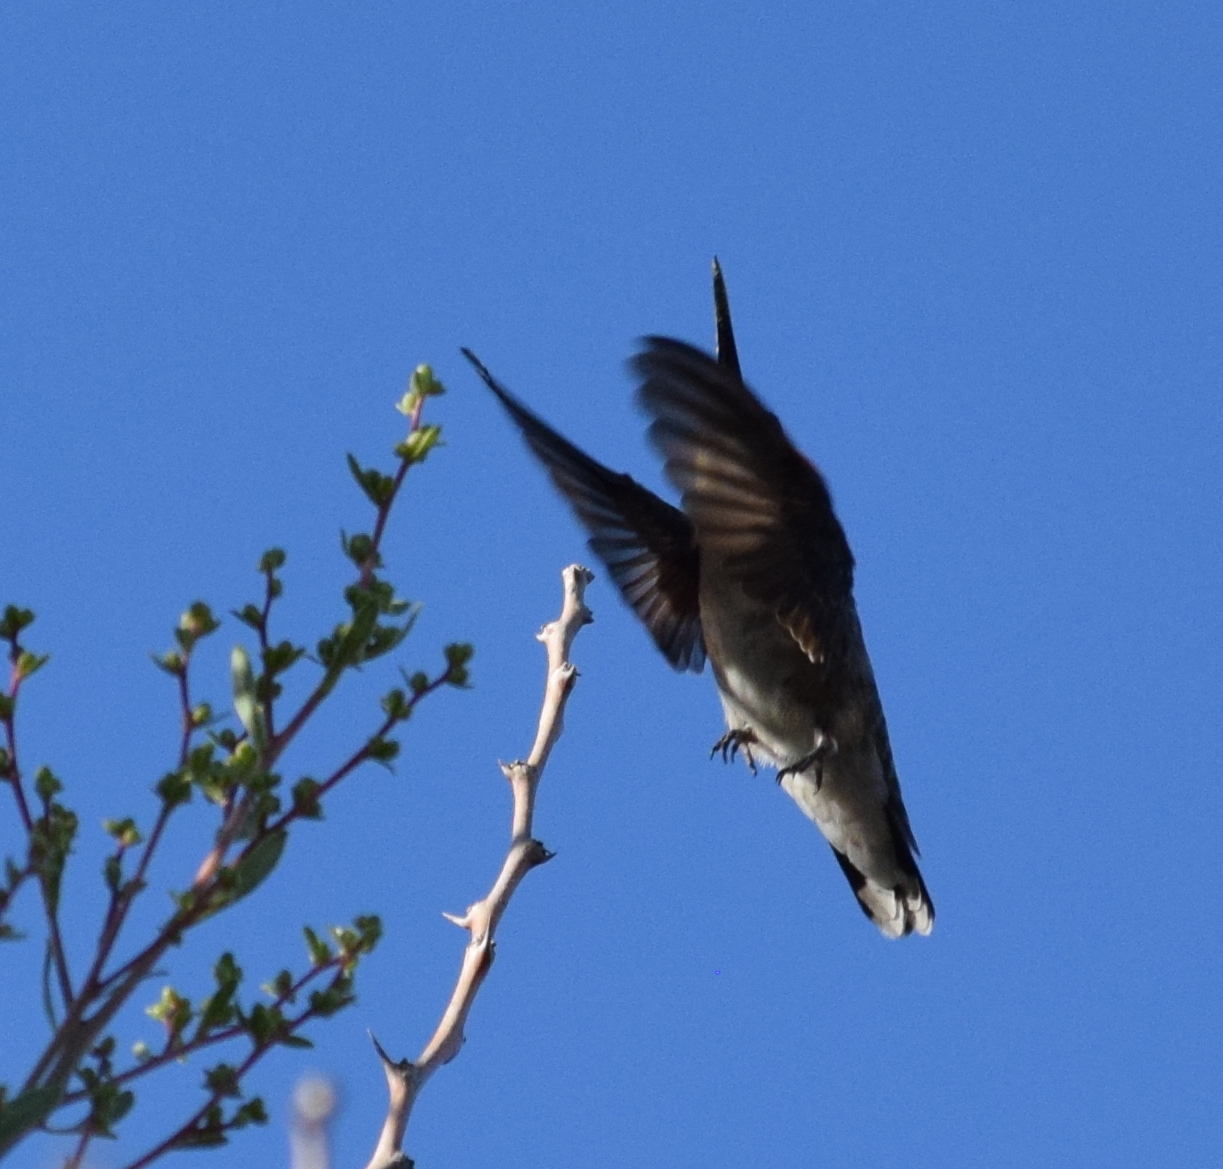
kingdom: Animalia
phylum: Chordata
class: Aves
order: Apodiformes
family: Trochilidae
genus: Archilochus
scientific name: Archilochus alexandri
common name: Black-chinned hummingbird
